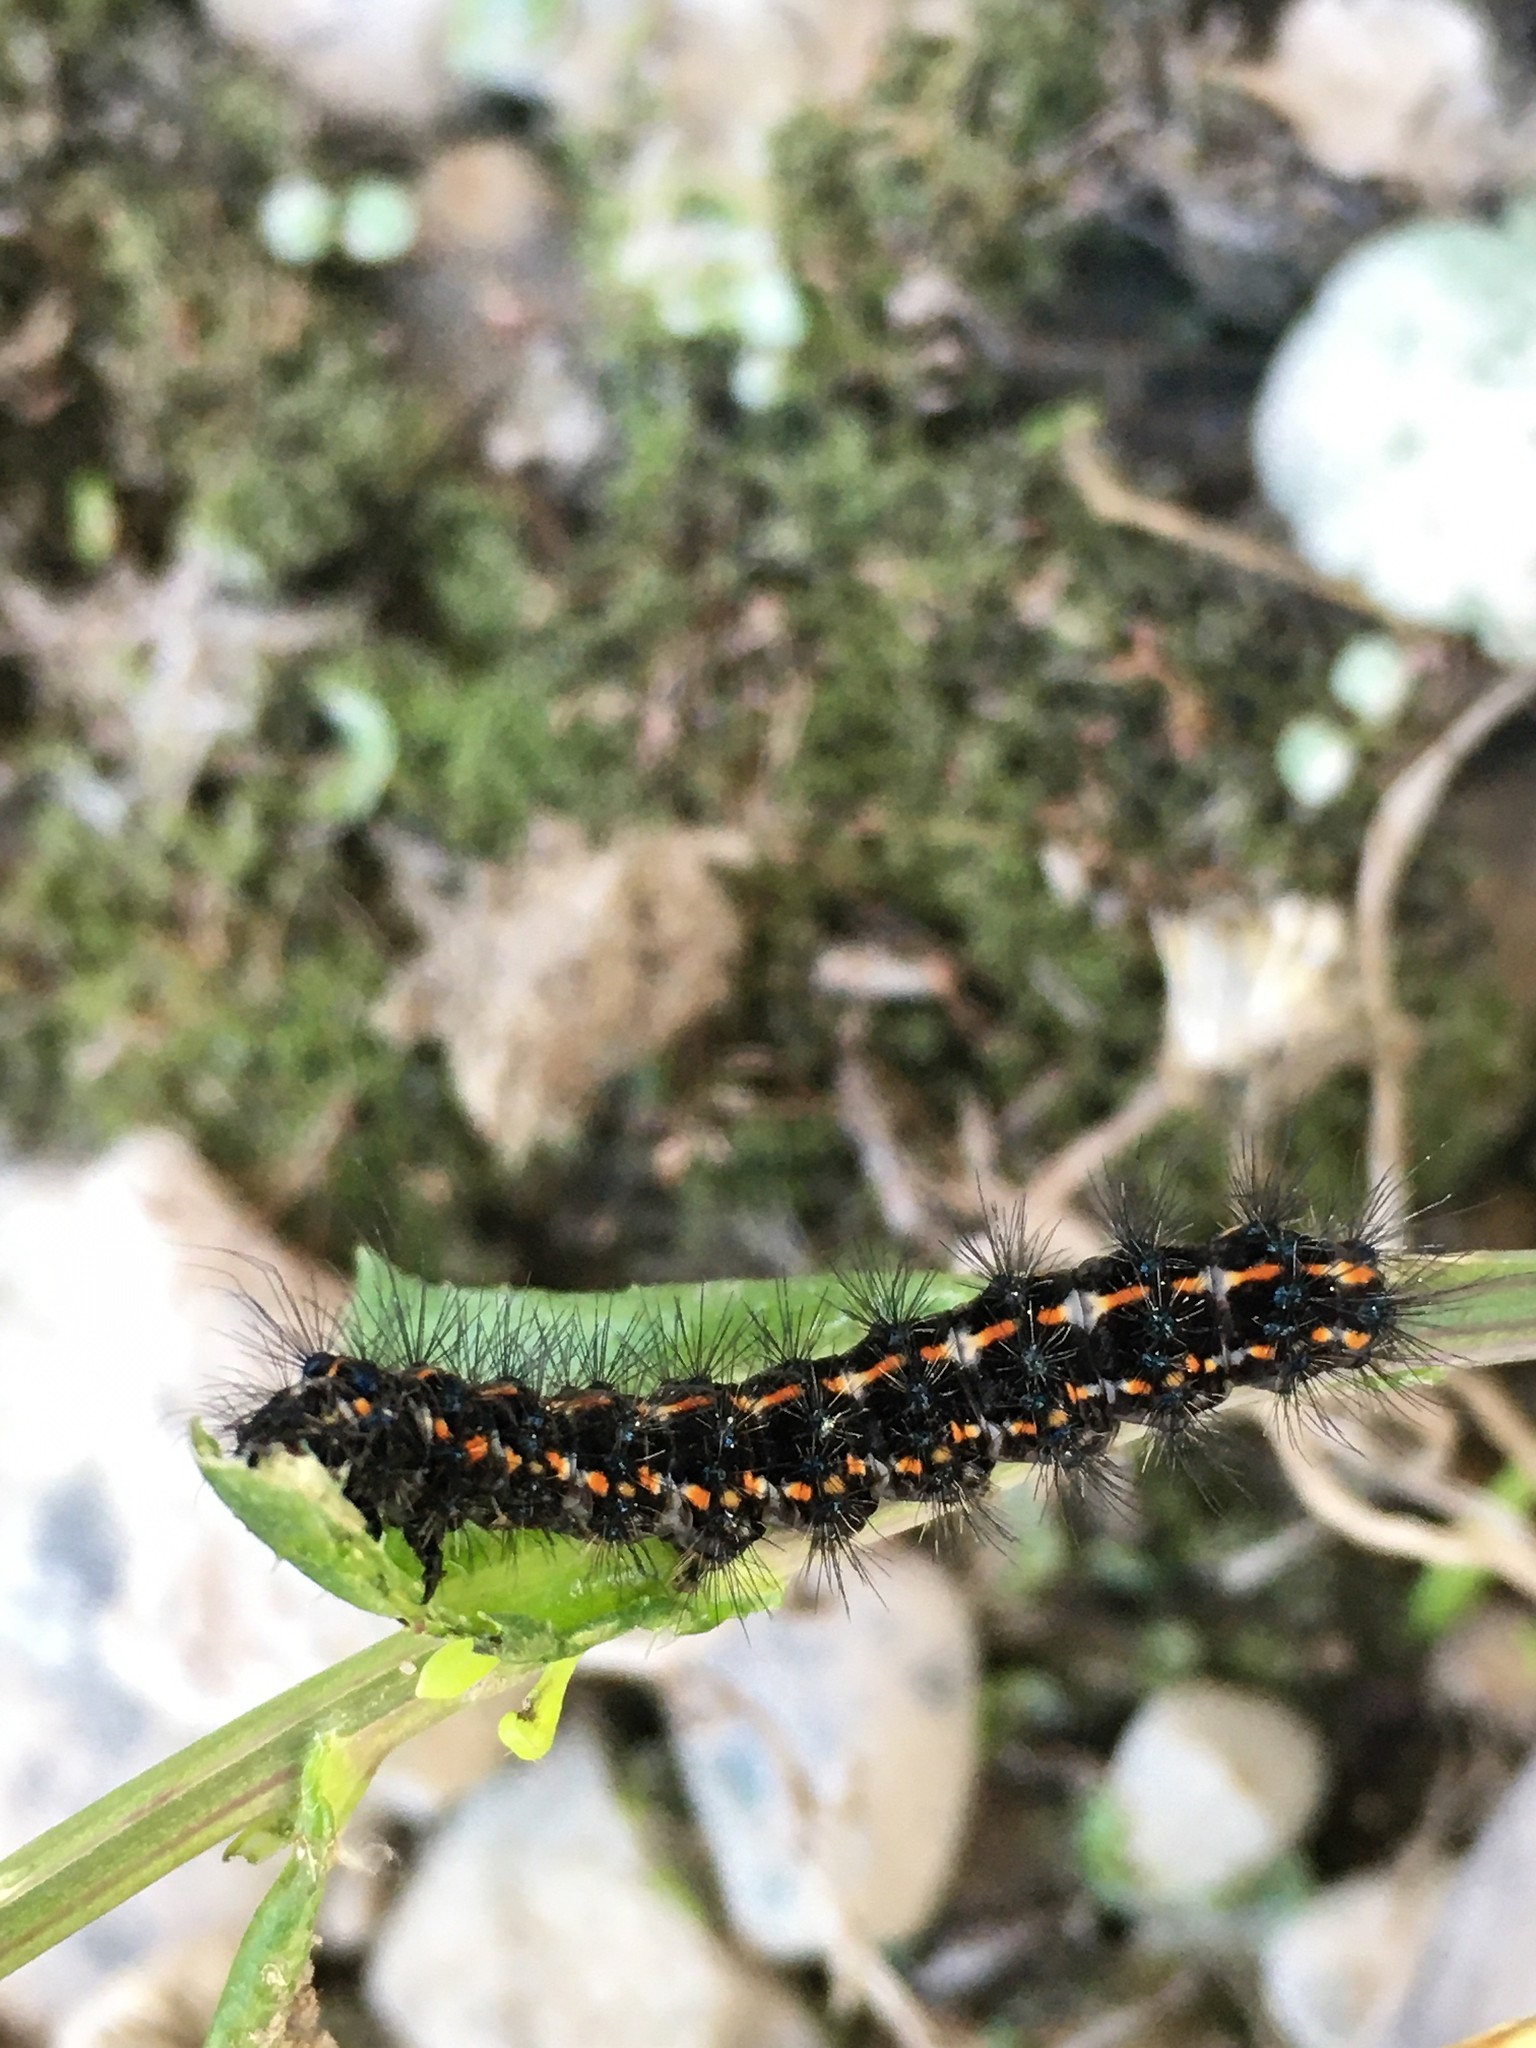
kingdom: Animalia
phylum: Arthropoda
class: Insecta
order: Lepidoptera
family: Erebidae
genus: Nyctemera
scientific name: Nyctemera annulatum
